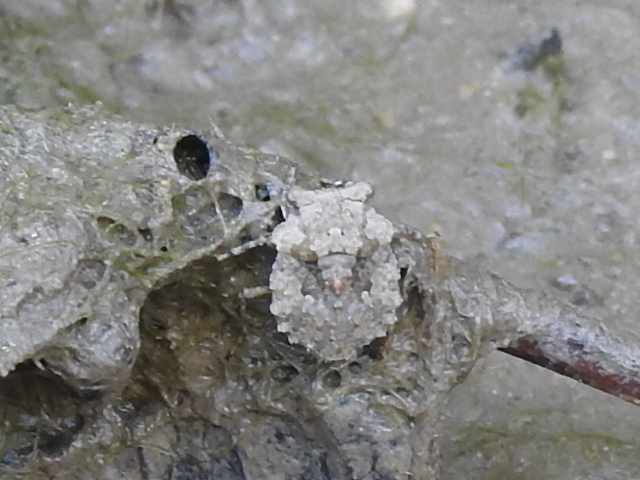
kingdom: Animalia
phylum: Arthropoda
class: Insecta
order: Hemiptera
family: Gelastocoridae
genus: Gelastocoris
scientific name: Gelastocoris oculatus
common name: Toad bug
